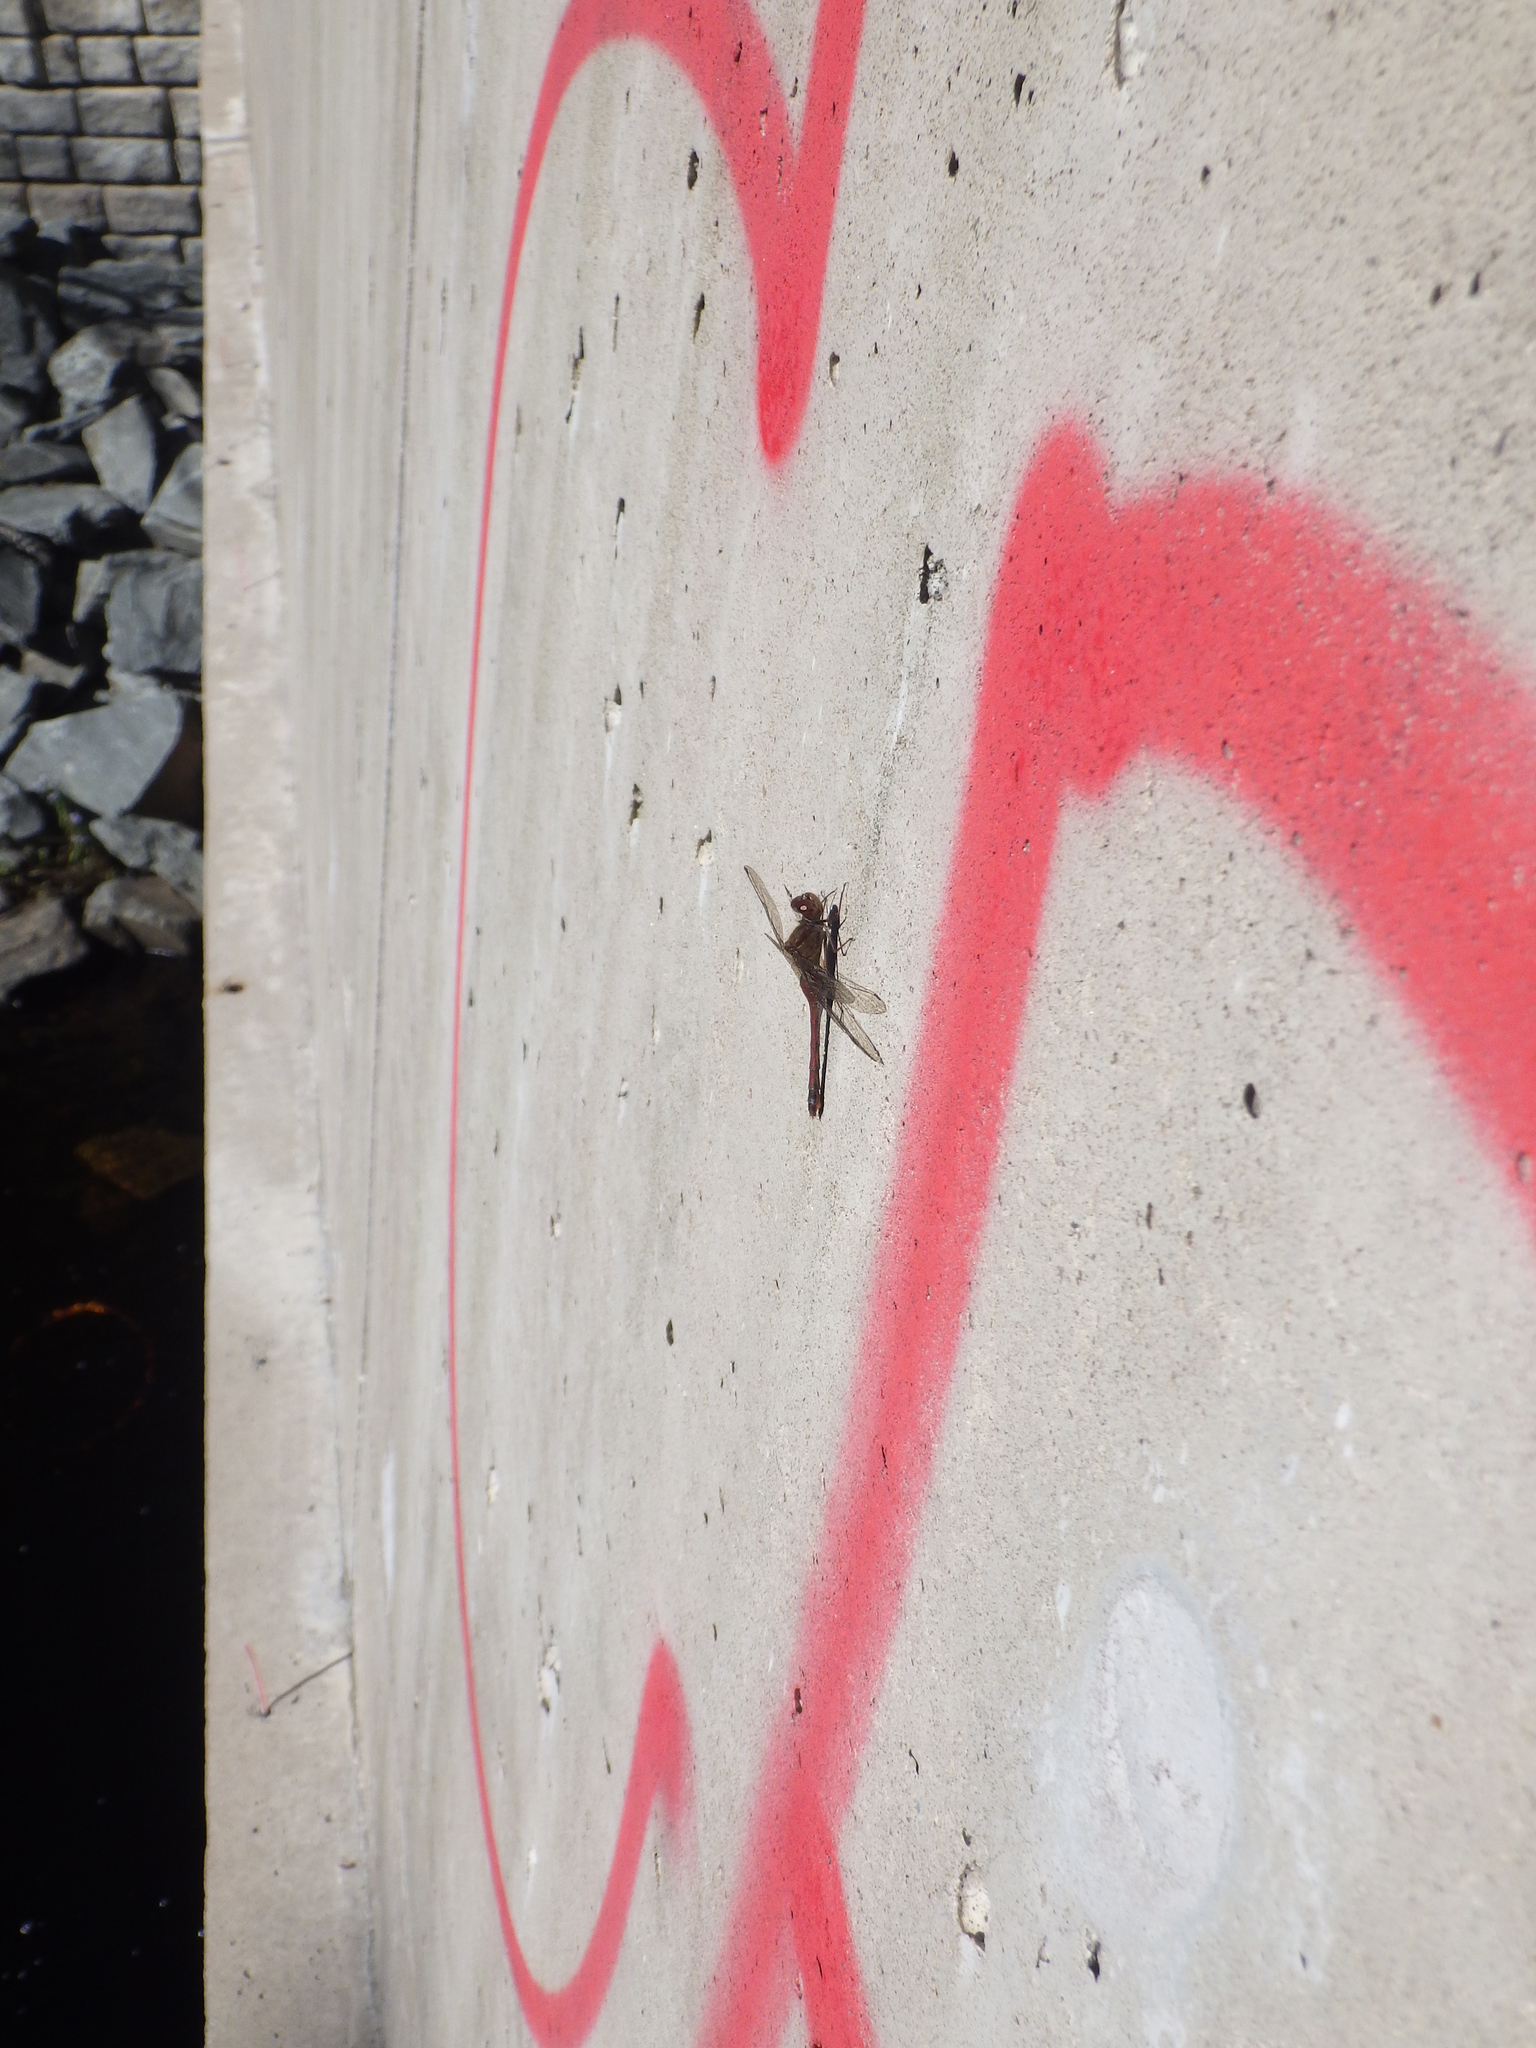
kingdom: Animalia
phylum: Arthropoda
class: Insecta
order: Odonata
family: Libellulidae
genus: Sympetrum
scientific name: Sympetrum vicinum
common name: Autumn meadowhawk
